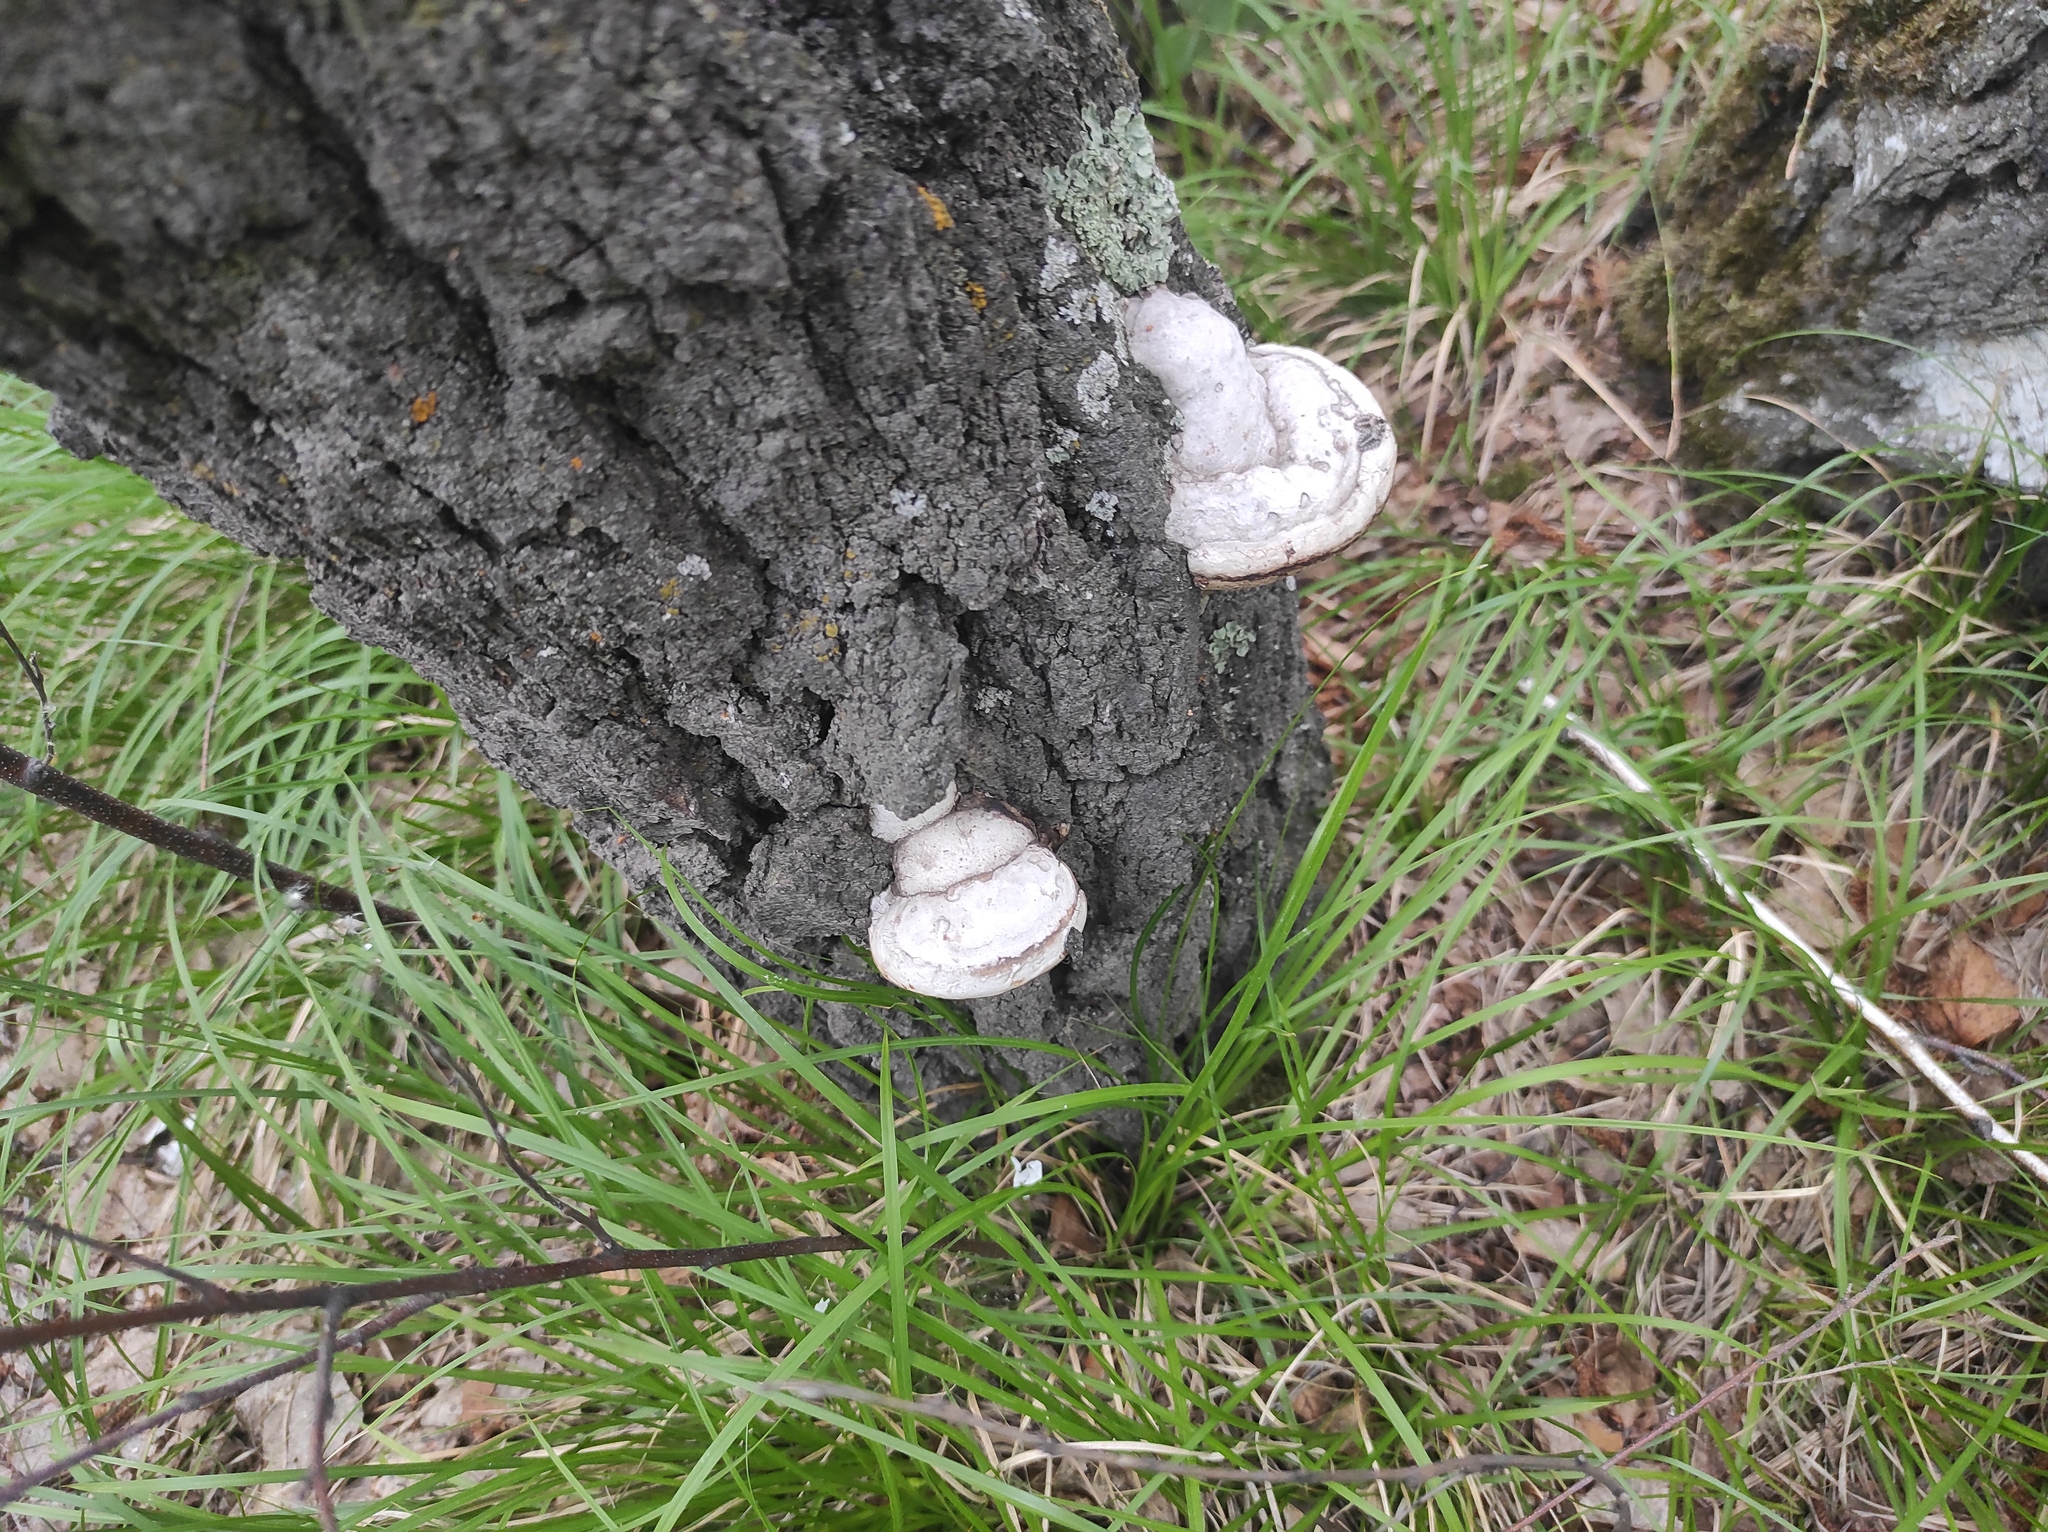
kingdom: Fungi
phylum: Basidiomycota
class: Agaricomycetes
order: Polyporales
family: Polyporaceae
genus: Fomes
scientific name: Fomes fomentarius
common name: Hoof fungus
